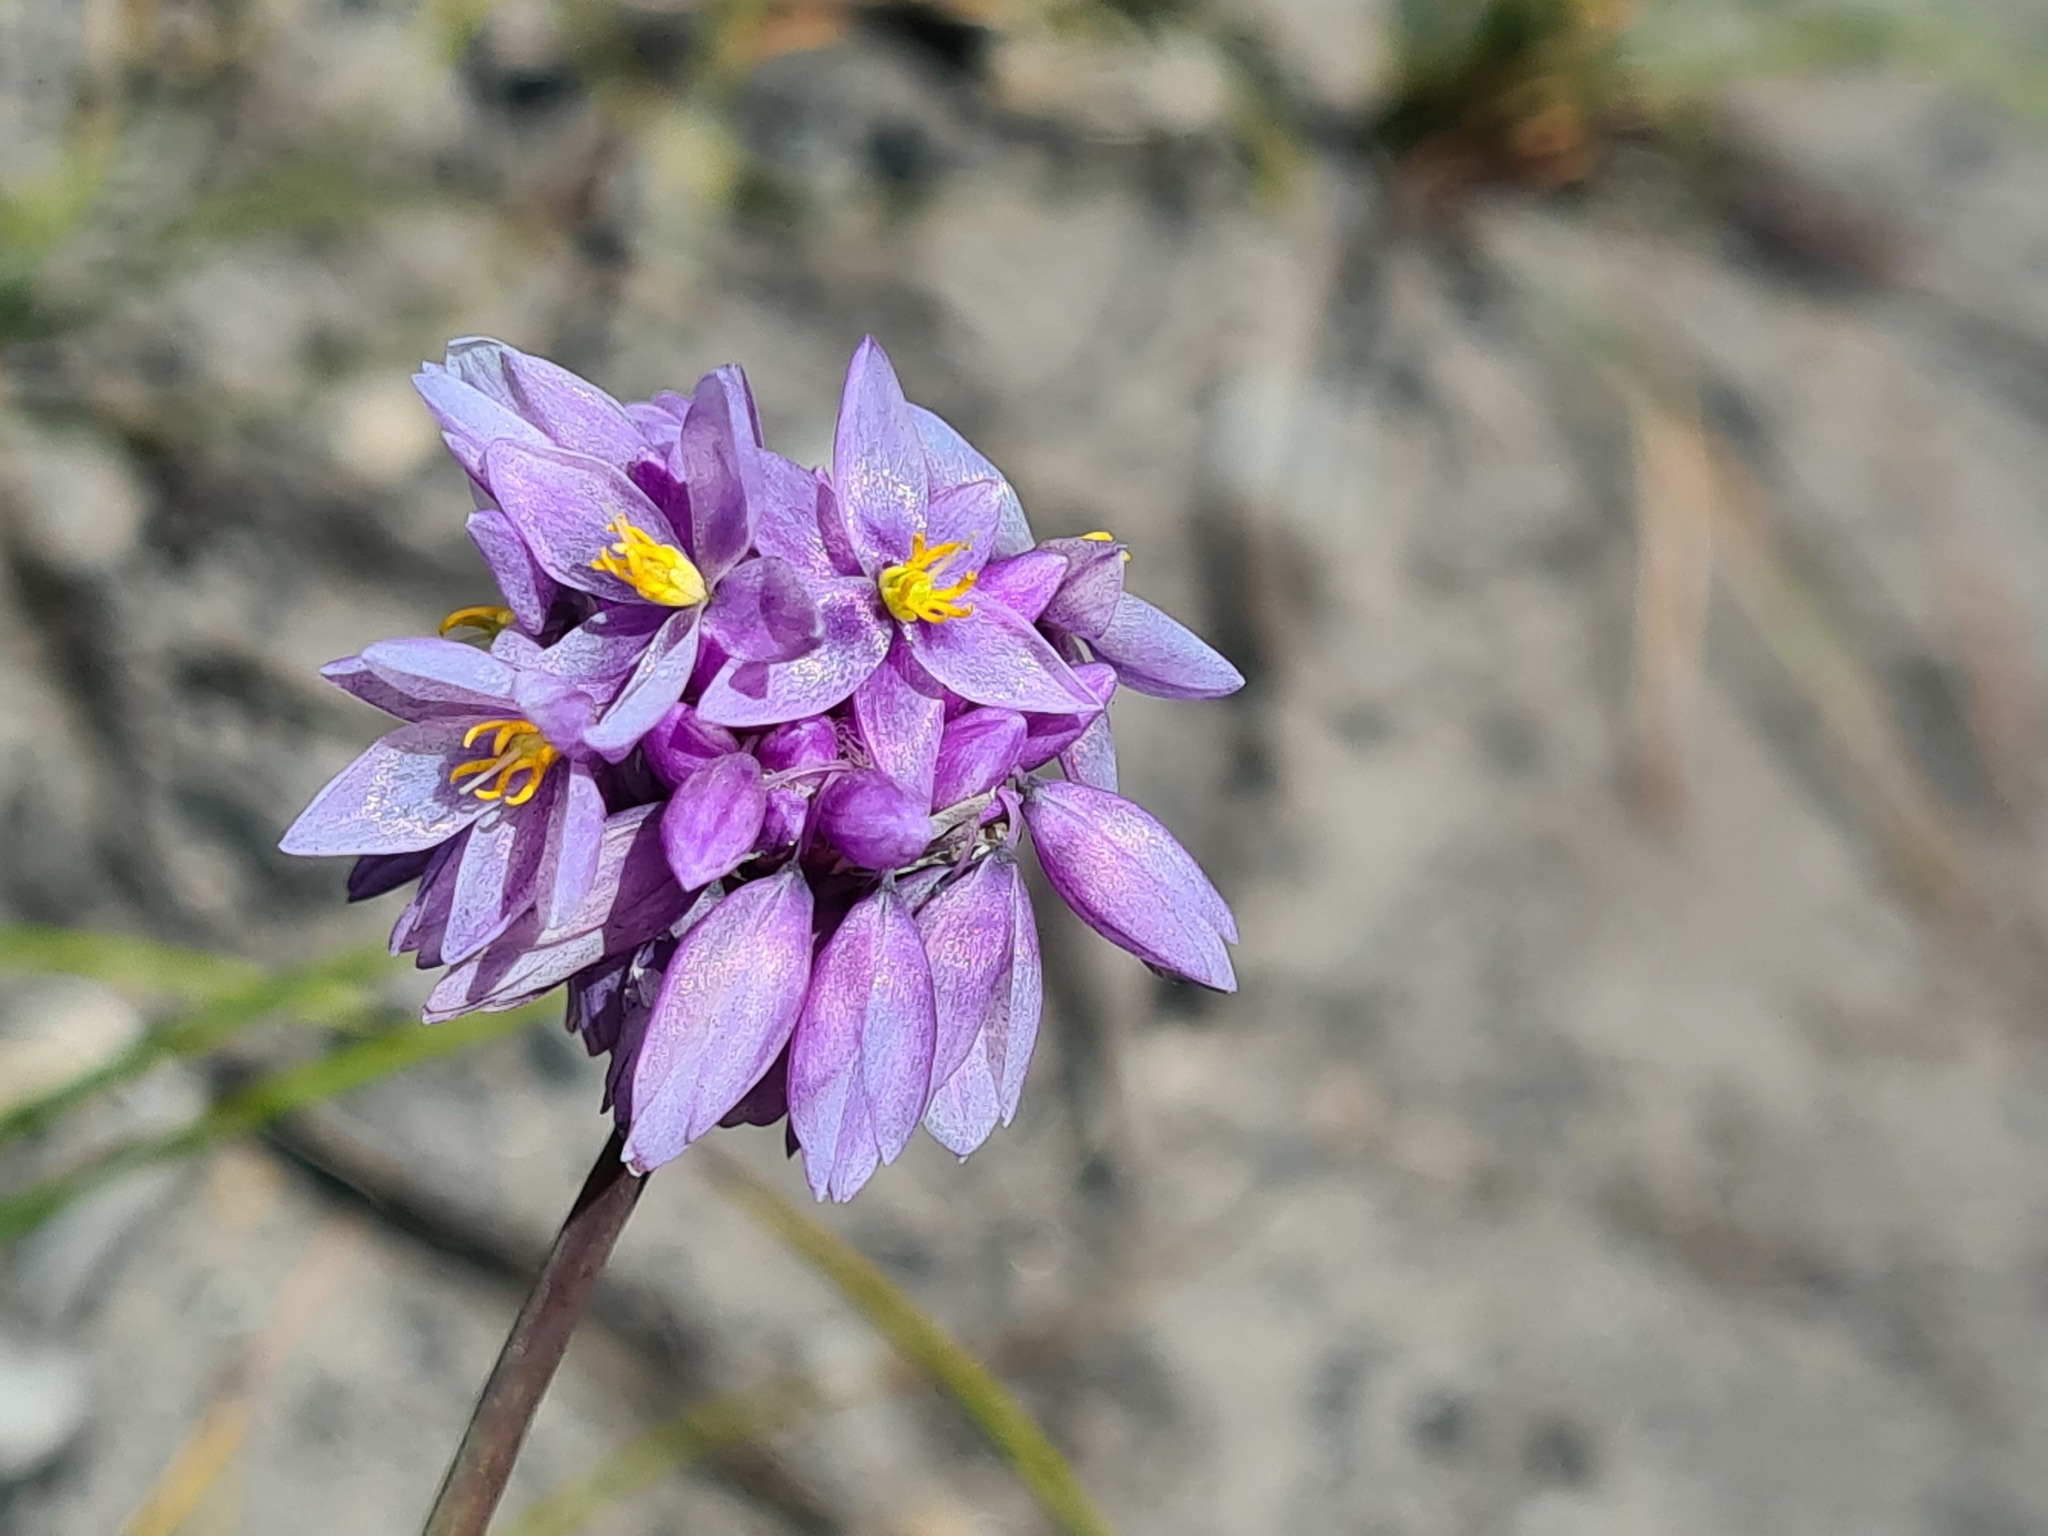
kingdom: Plantae
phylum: Tracheophyta
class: Liliopsida
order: Asparagales
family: Asparagaceae
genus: Sowerbaea
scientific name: Sowerbaea juncea
